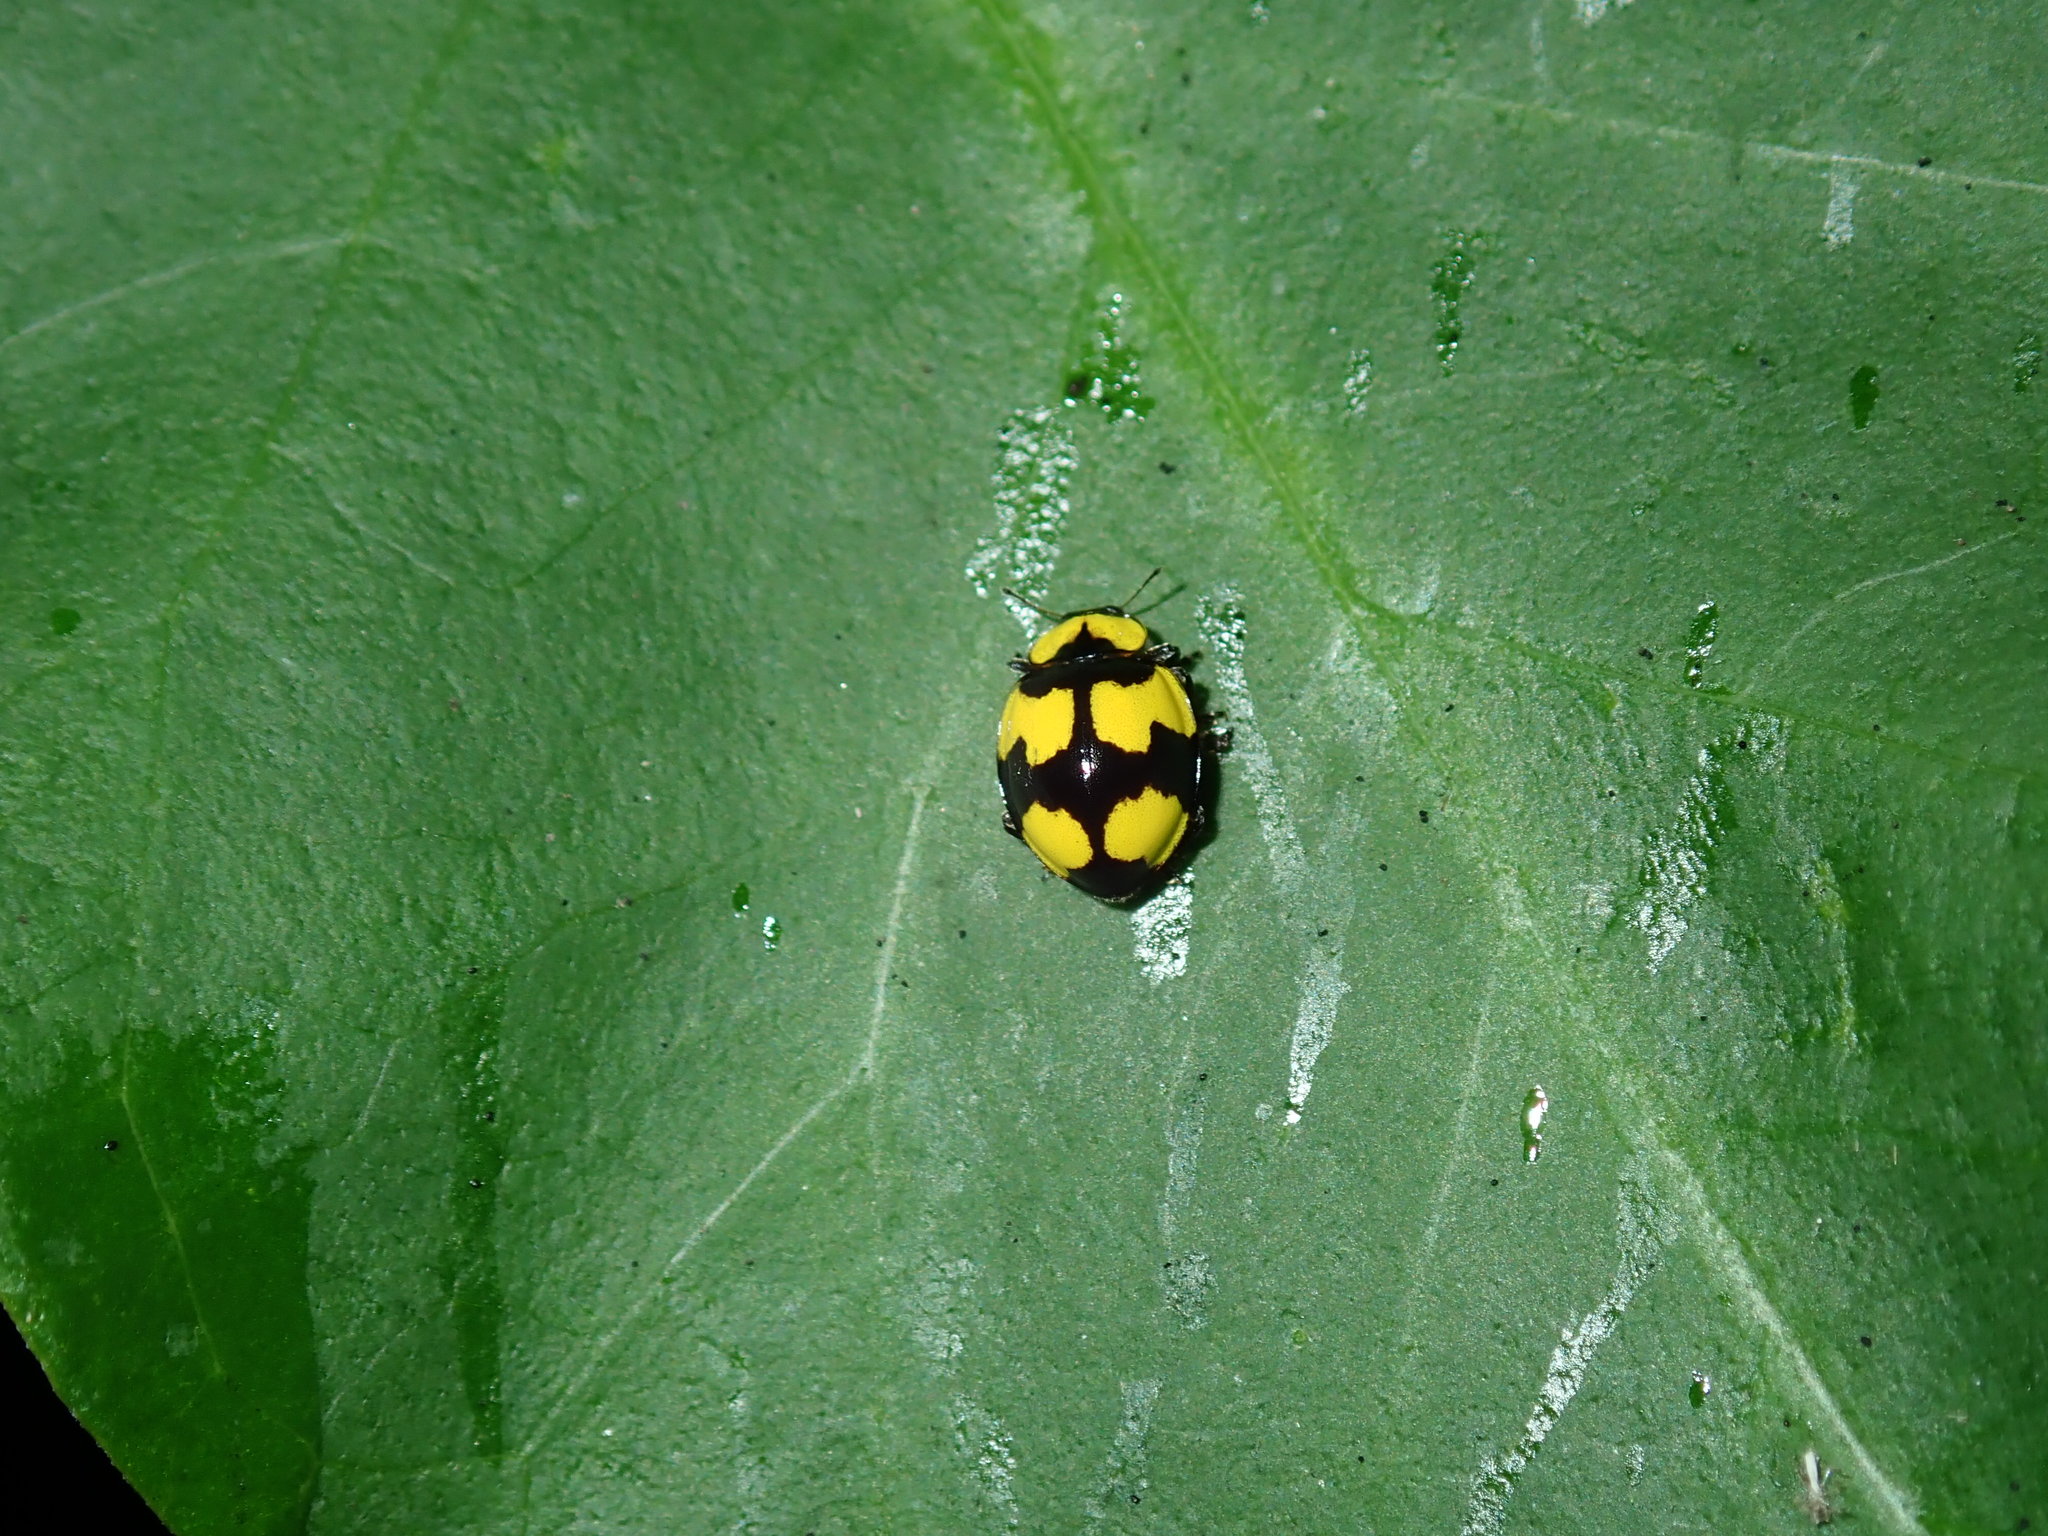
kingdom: Animalia
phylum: Arthropoda
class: Insecta
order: Coleoptera
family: Coccinellidae
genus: Illeis
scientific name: Illeis galbula
